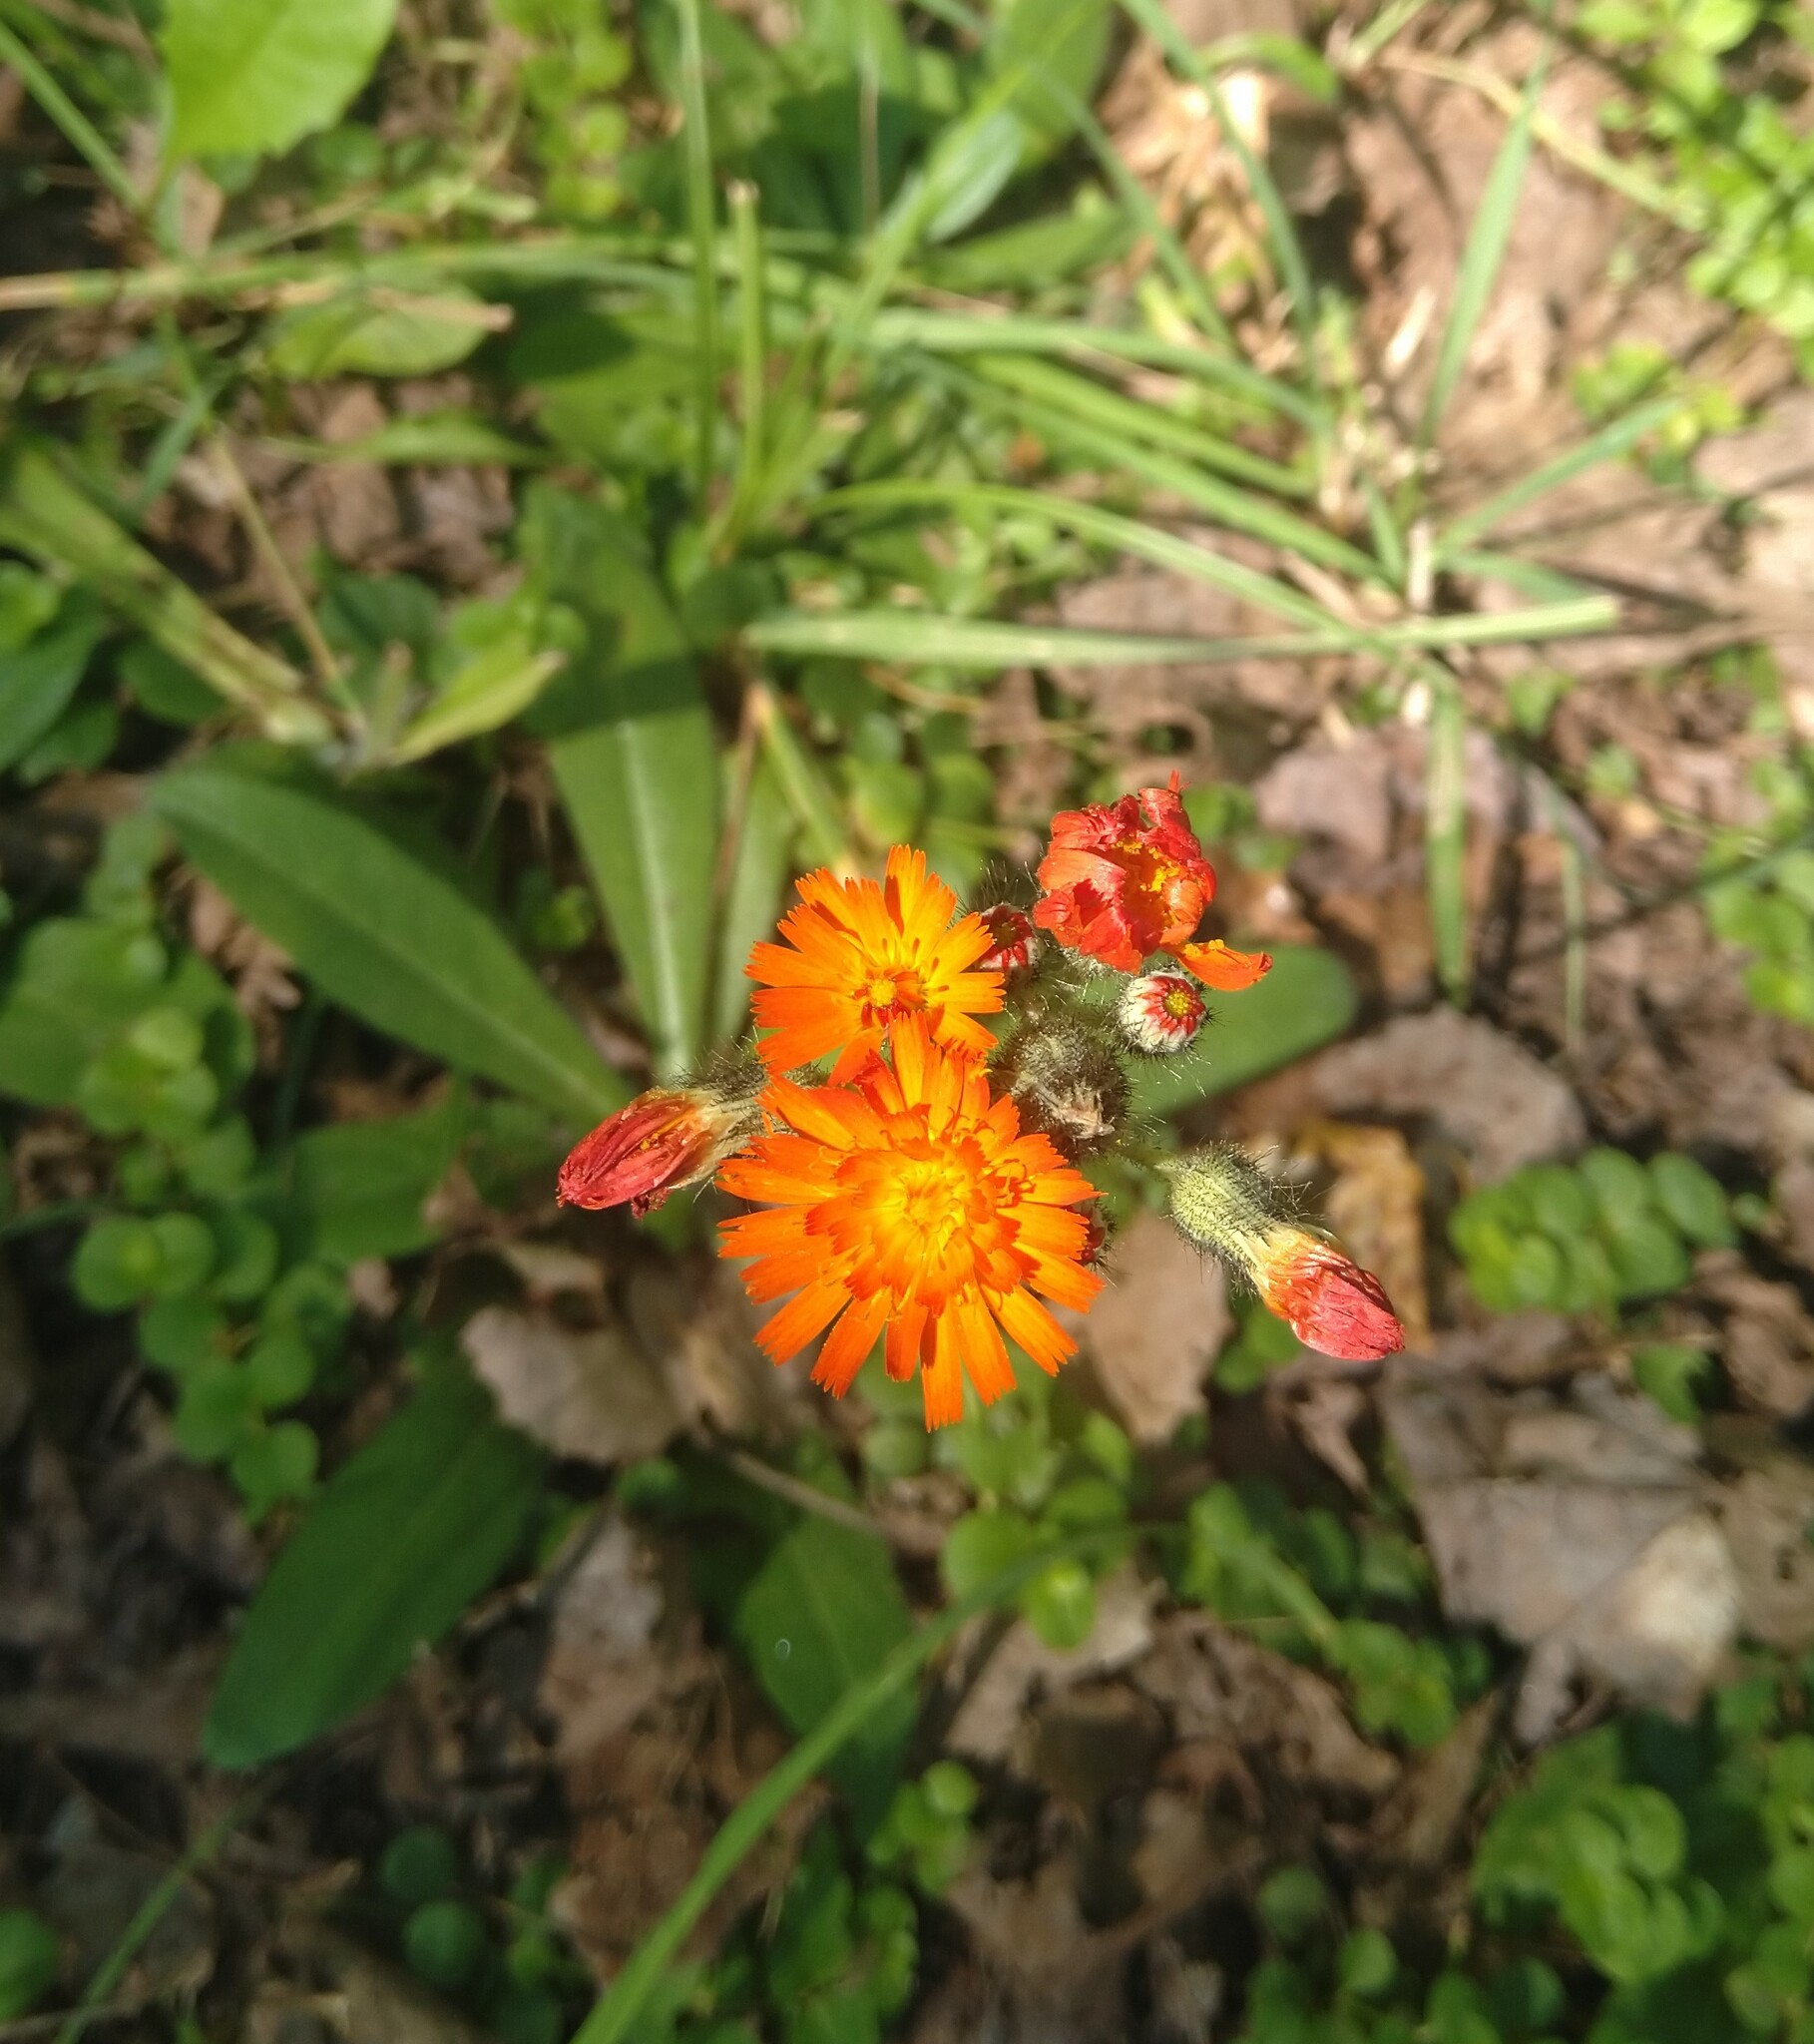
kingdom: Plantae
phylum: Tracheophyta
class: Magnoliopsida
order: Asterales
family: Asteraceae
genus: Pilosella
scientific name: Pilosella aurantiaca
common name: Fox-and-cubs
